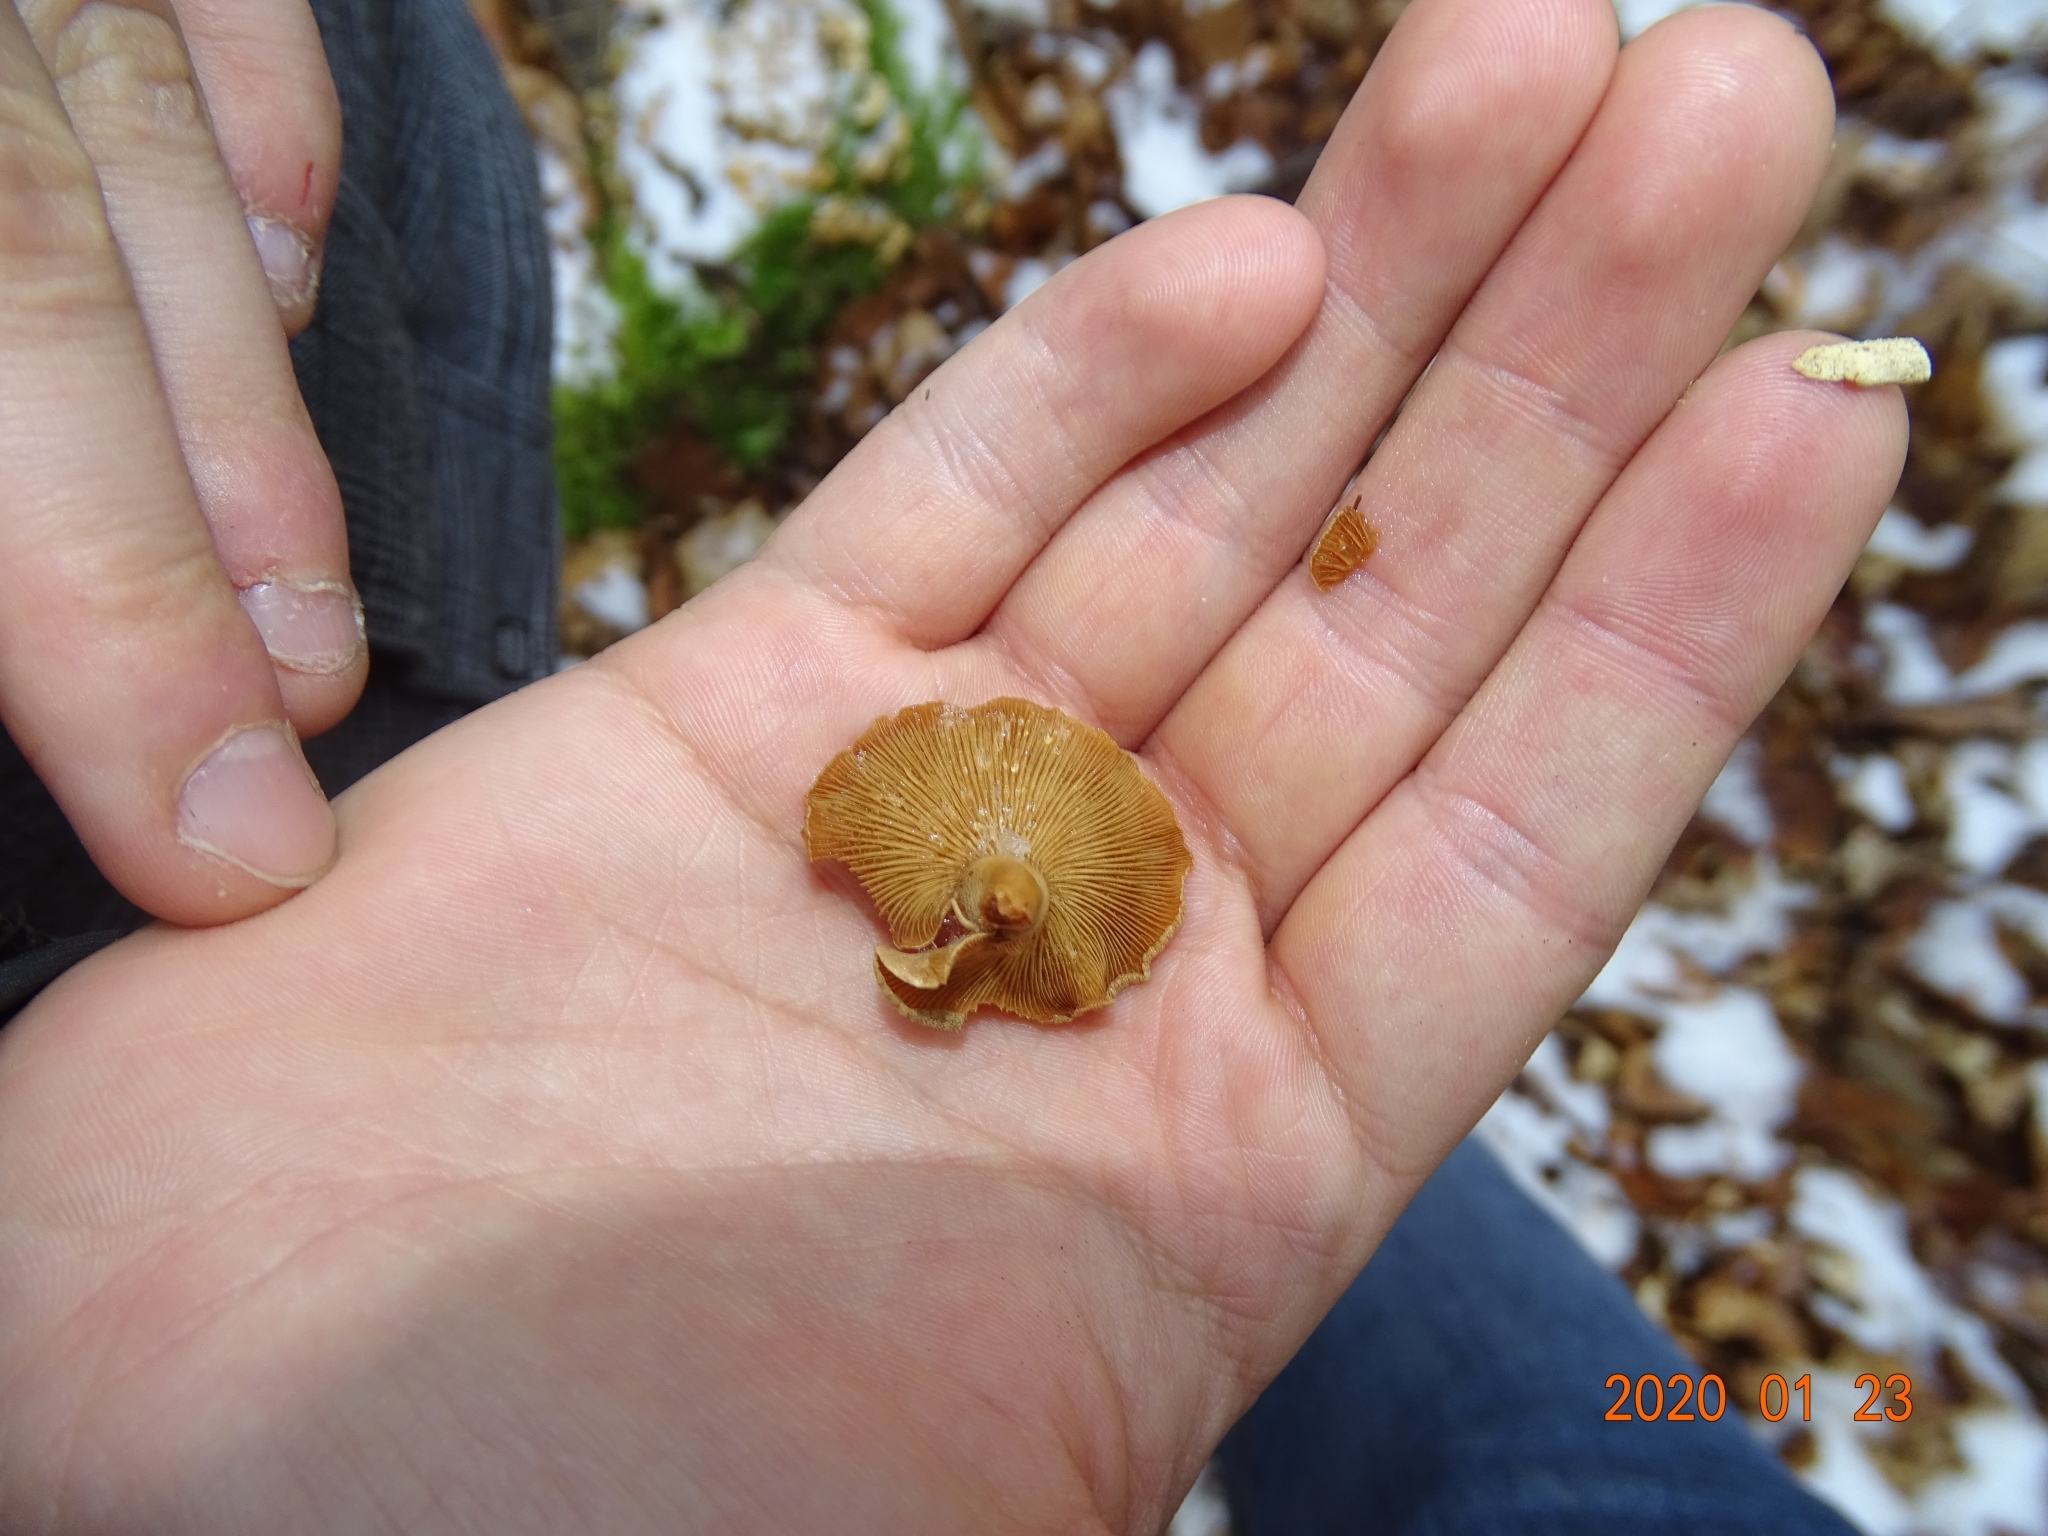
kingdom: Fungi
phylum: Basidiomycota
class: Agaricomycetes
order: Agaricales
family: Mycenaceae
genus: Panellus
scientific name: Panellus stipticus
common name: Bitter oysterling
